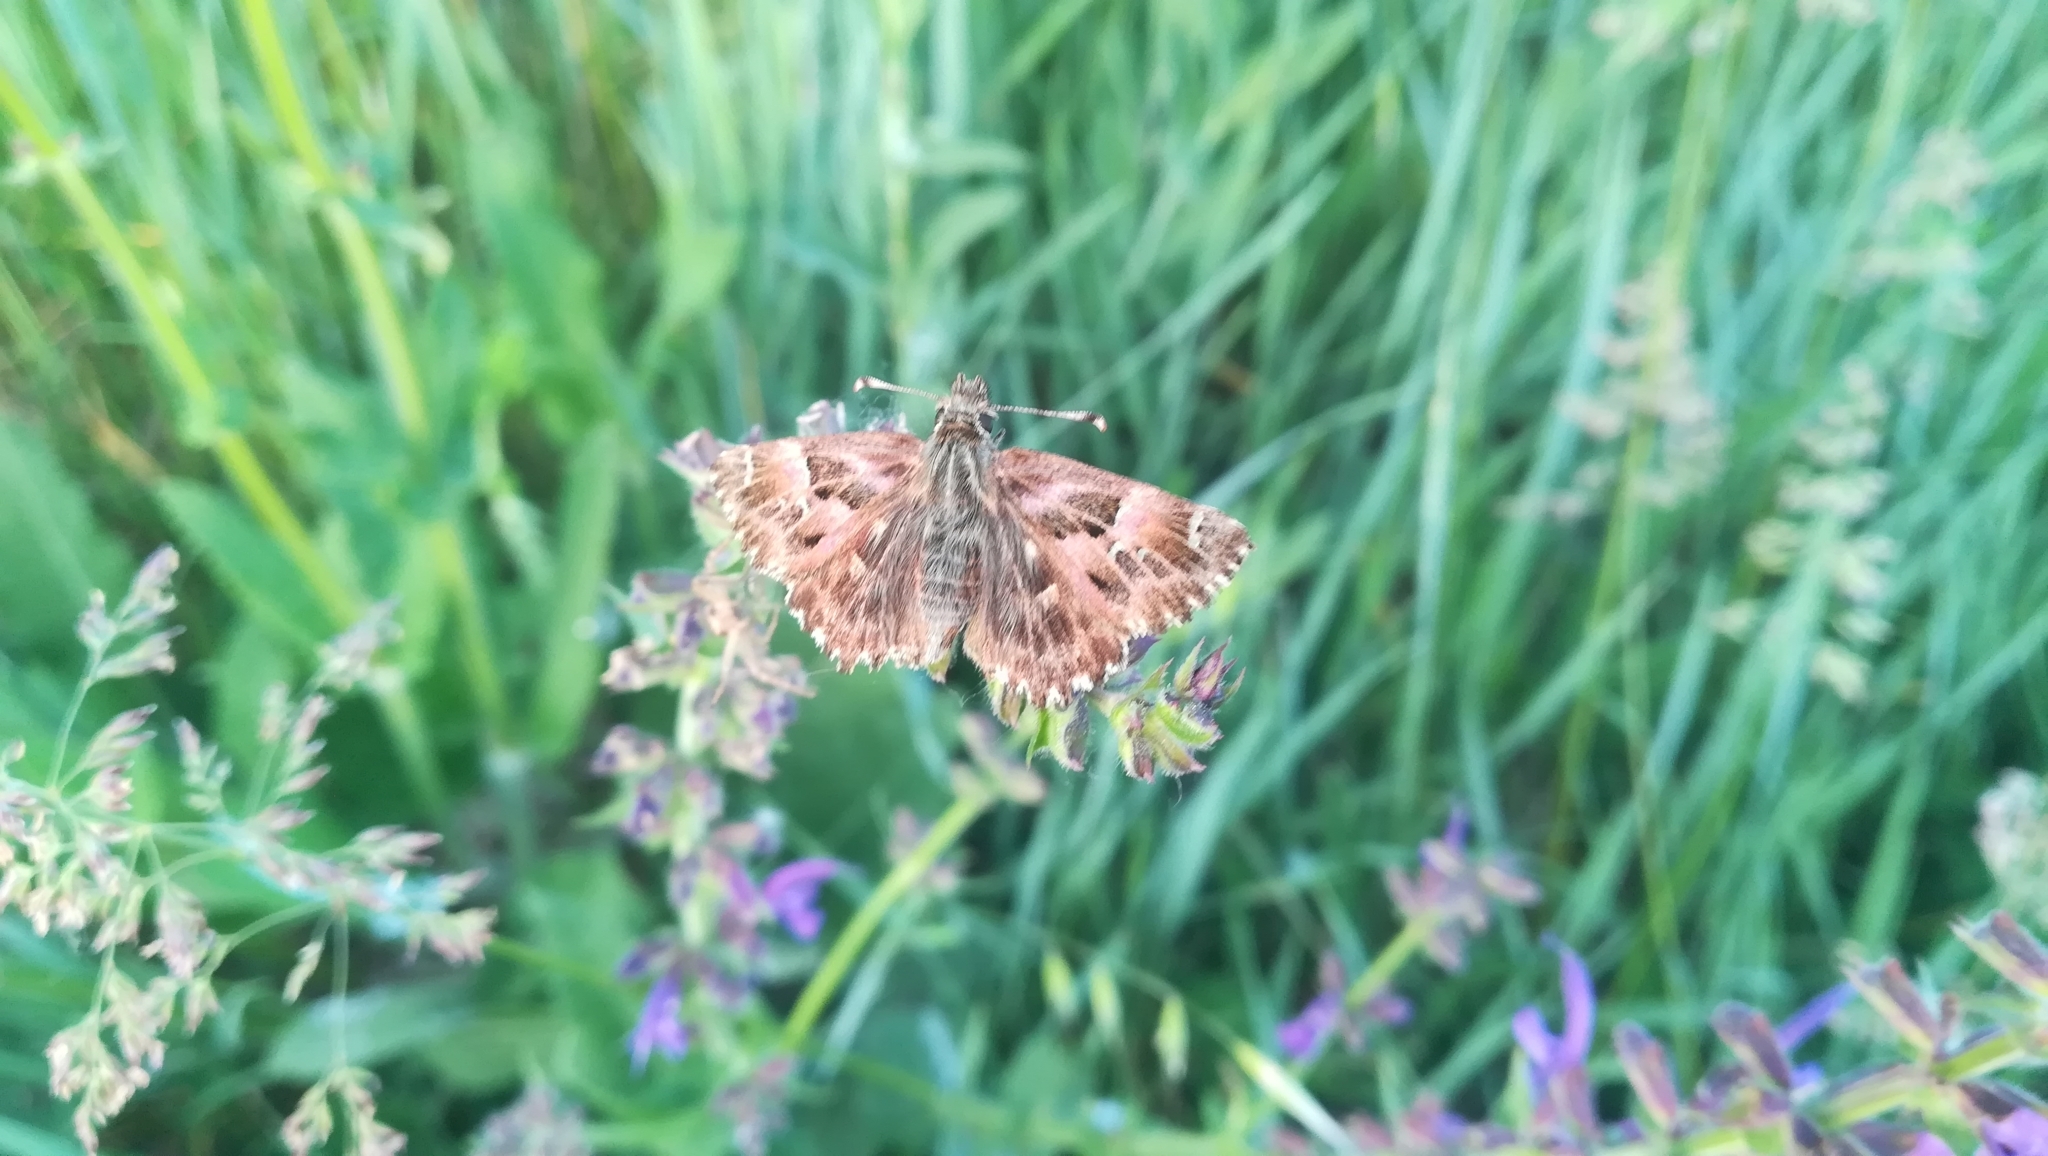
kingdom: Animalia
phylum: Arthropoda
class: Insecta
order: Lepidoptera
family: Hesperiidae
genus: Carcharodus
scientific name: Carcharodus alceae
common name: Mallow skipper
